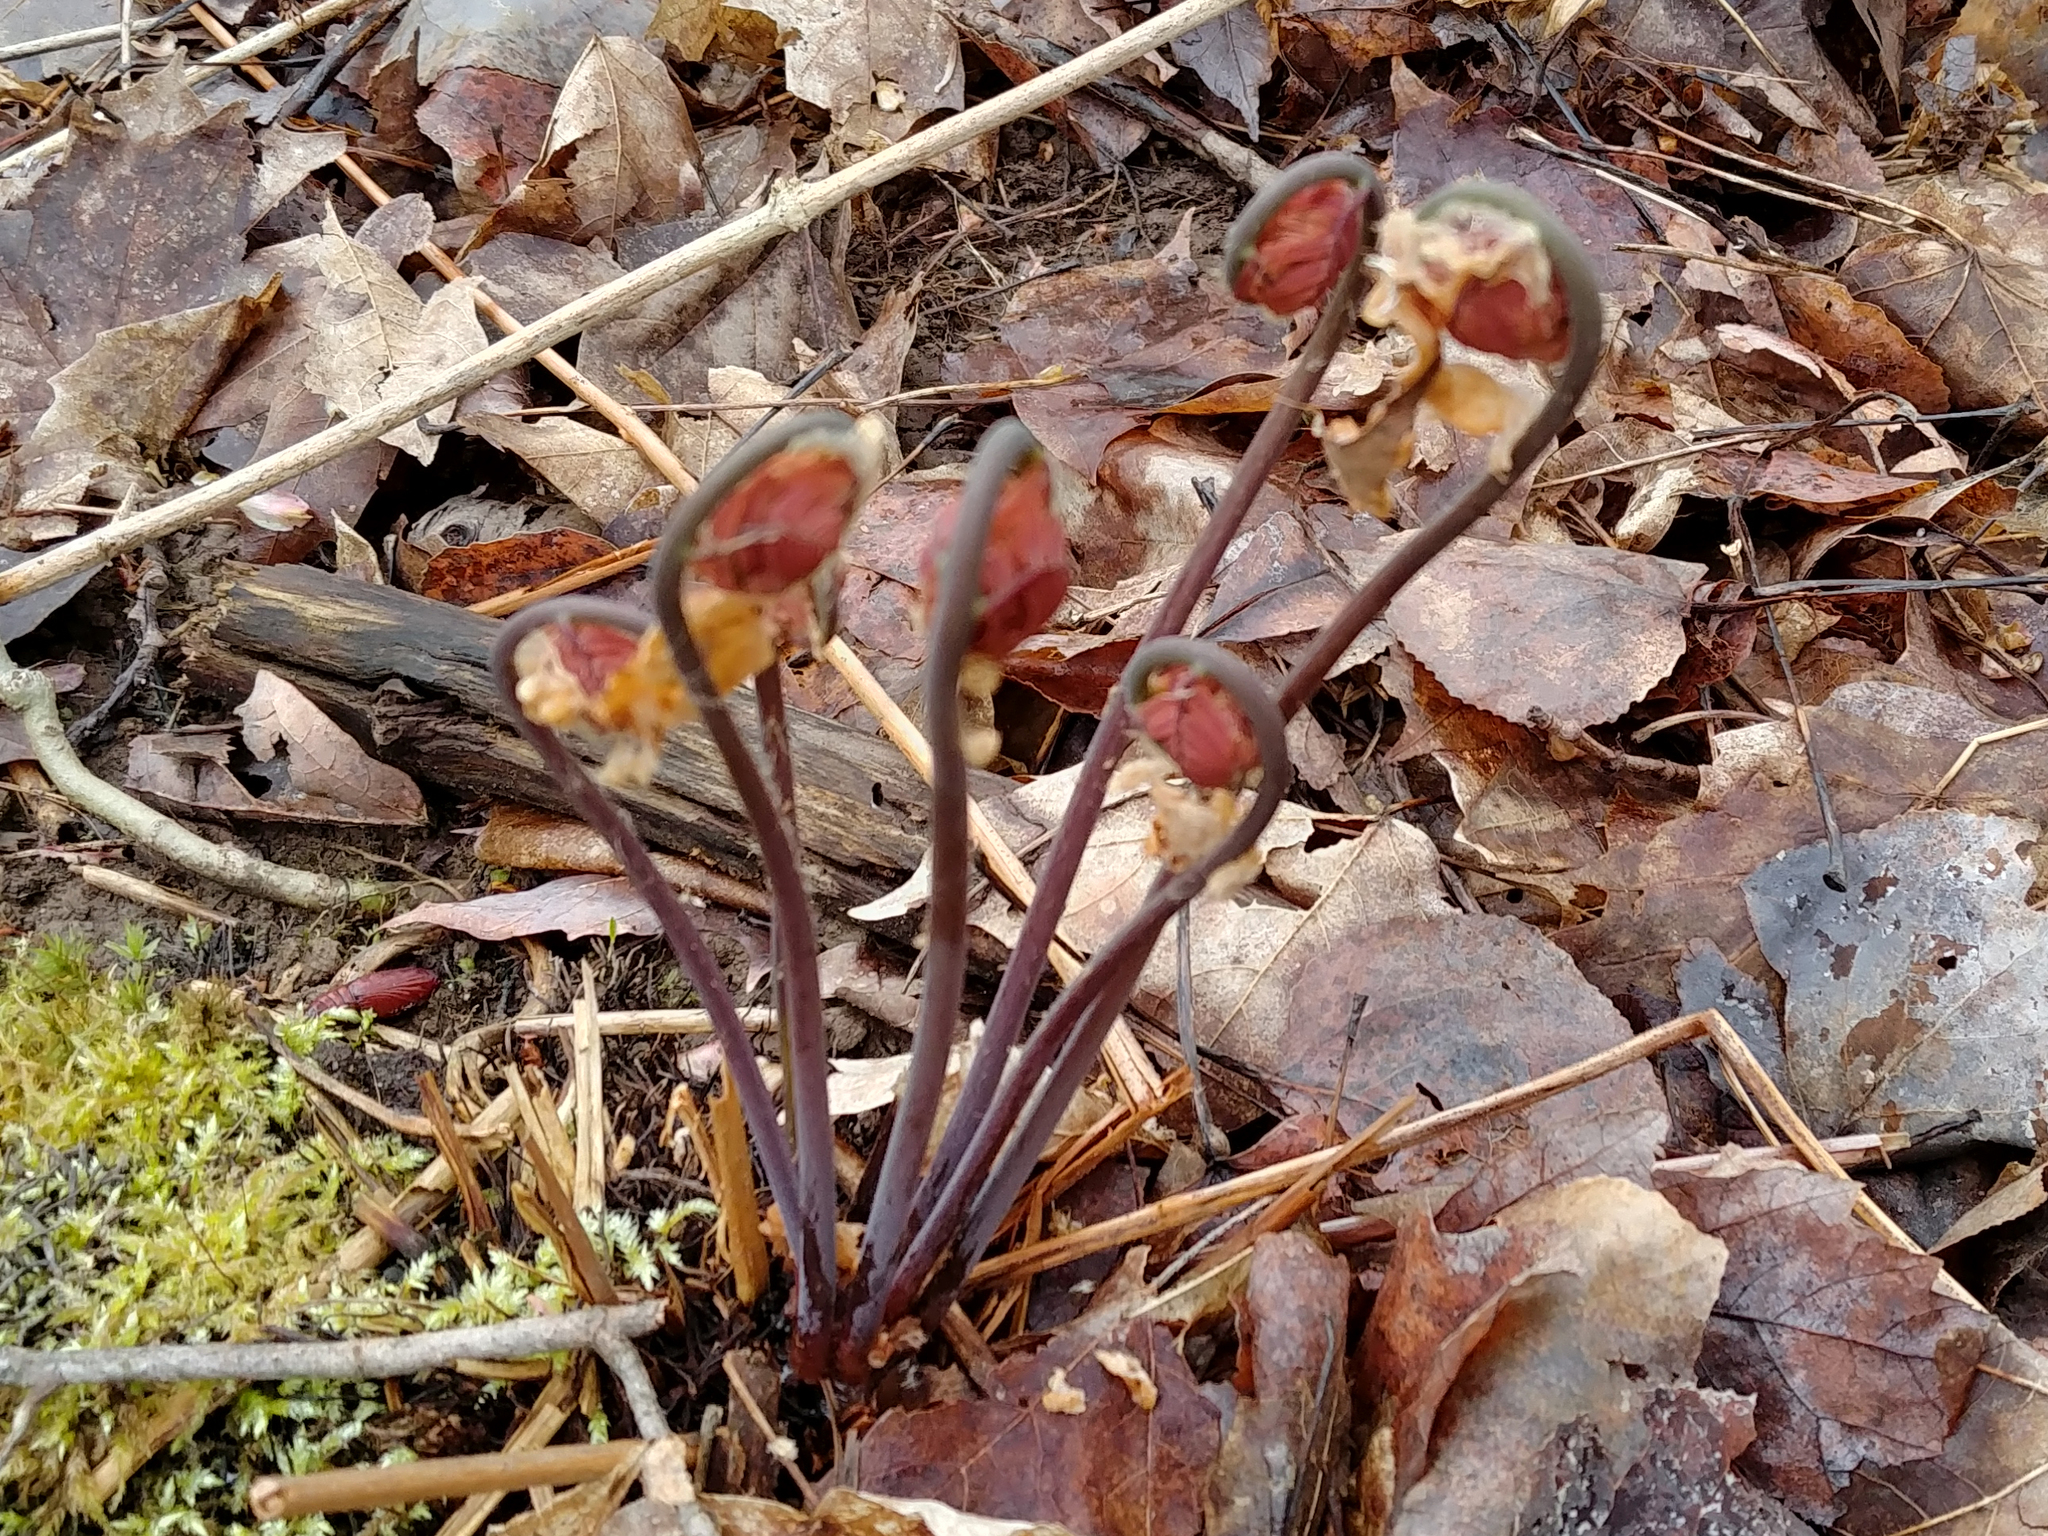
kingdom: Plantae
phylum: Tracheophyta
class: Polypodiopsida
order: Osmundales
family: Osmundaceae
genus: Osmunda
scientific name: Osmunda spectabilis
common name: American royal fern
